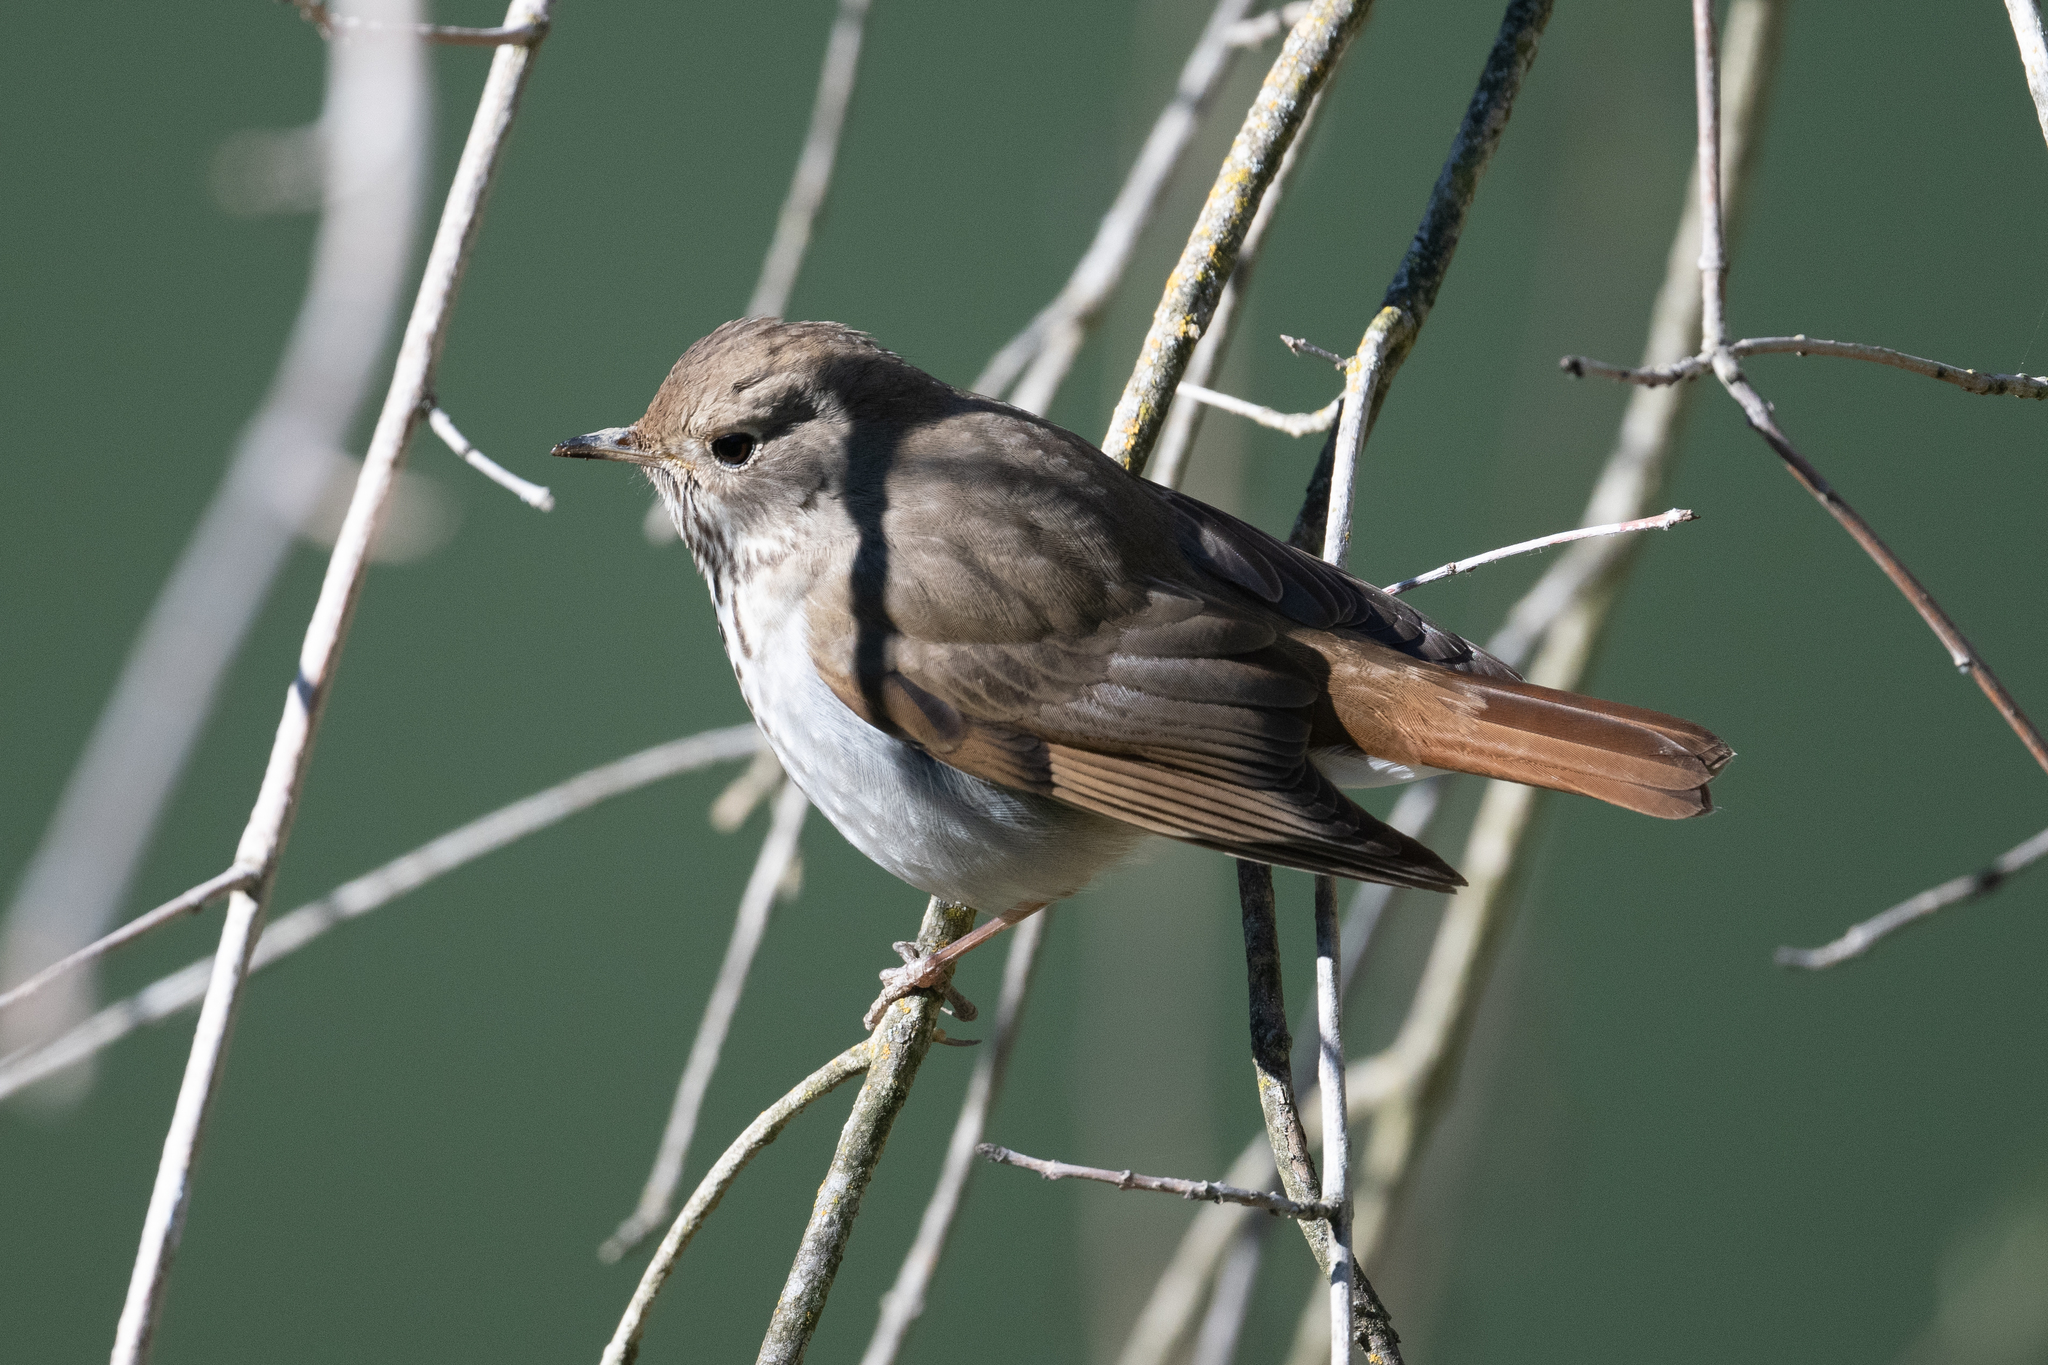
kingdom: Animalia
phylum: Chordata
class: Aves
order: Passeriformes
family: Turdidae
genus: Catharus
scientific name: Catharus guttatus
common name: Hermit thrush
